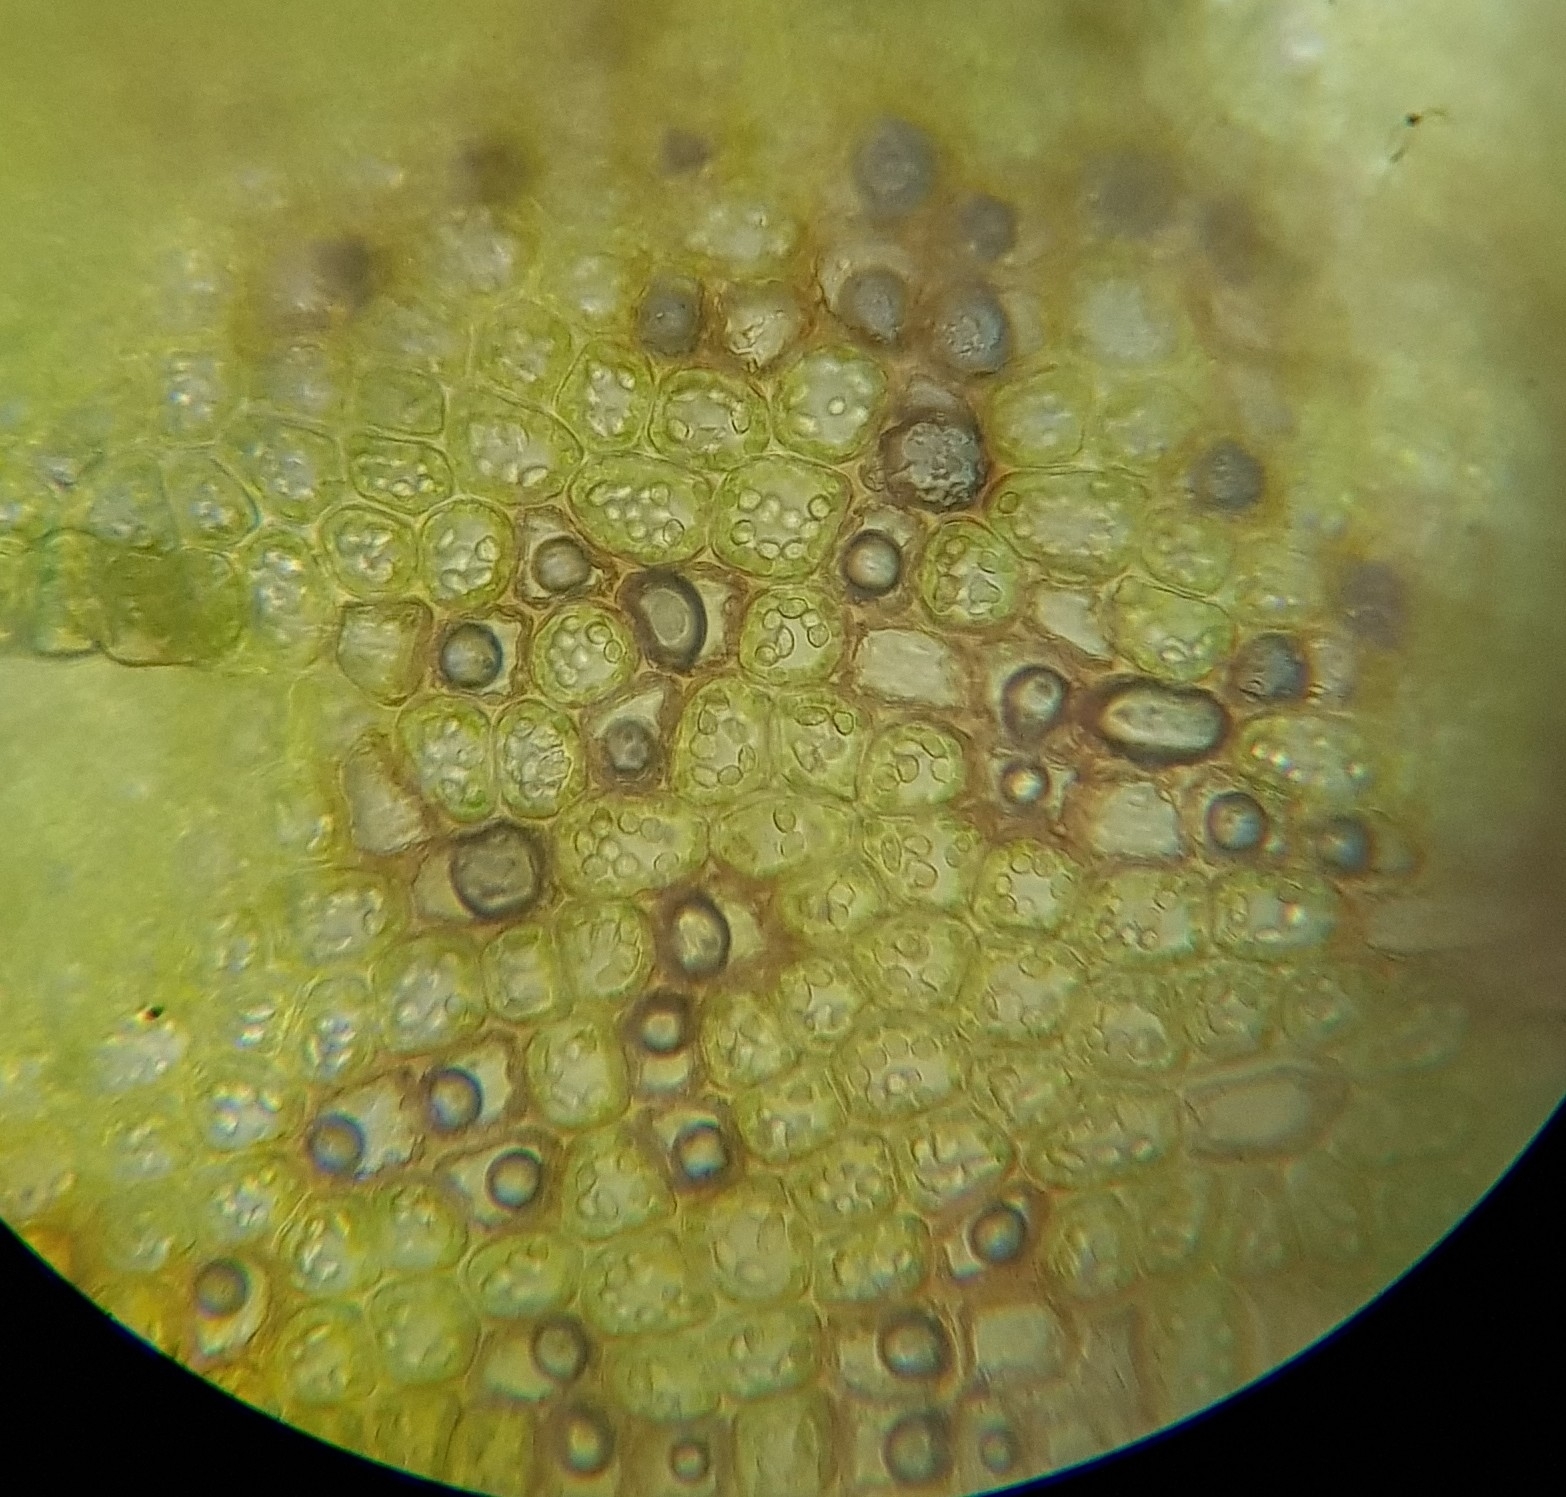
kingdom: Plantae
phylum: Marchantiophyta
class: Jungermanniopsida
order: Jungermanniales
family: Lophoziaceae
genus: Trilophozia
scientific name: Trilophozia quinquedentata
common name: Large notchwort
